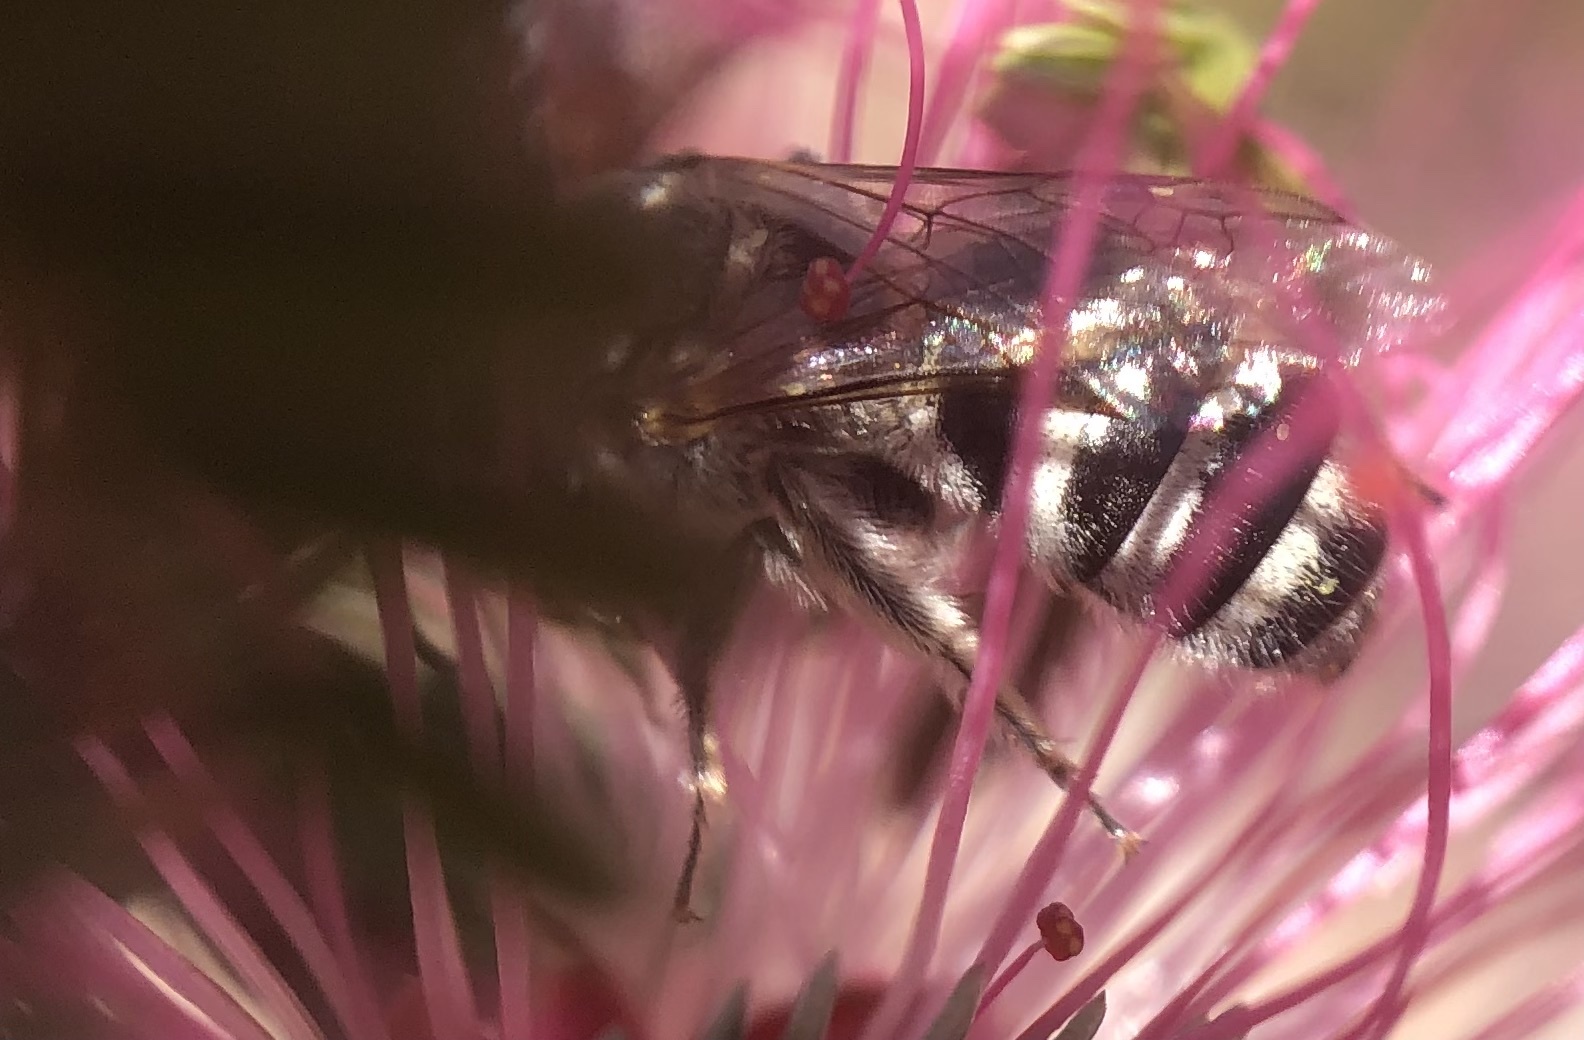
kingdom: Animalia
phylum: Arthropoda
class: Insecta
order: Hymenoptera
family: Halictidae
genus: Lasioglossum
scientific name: Lasioglossum sisymbrii
